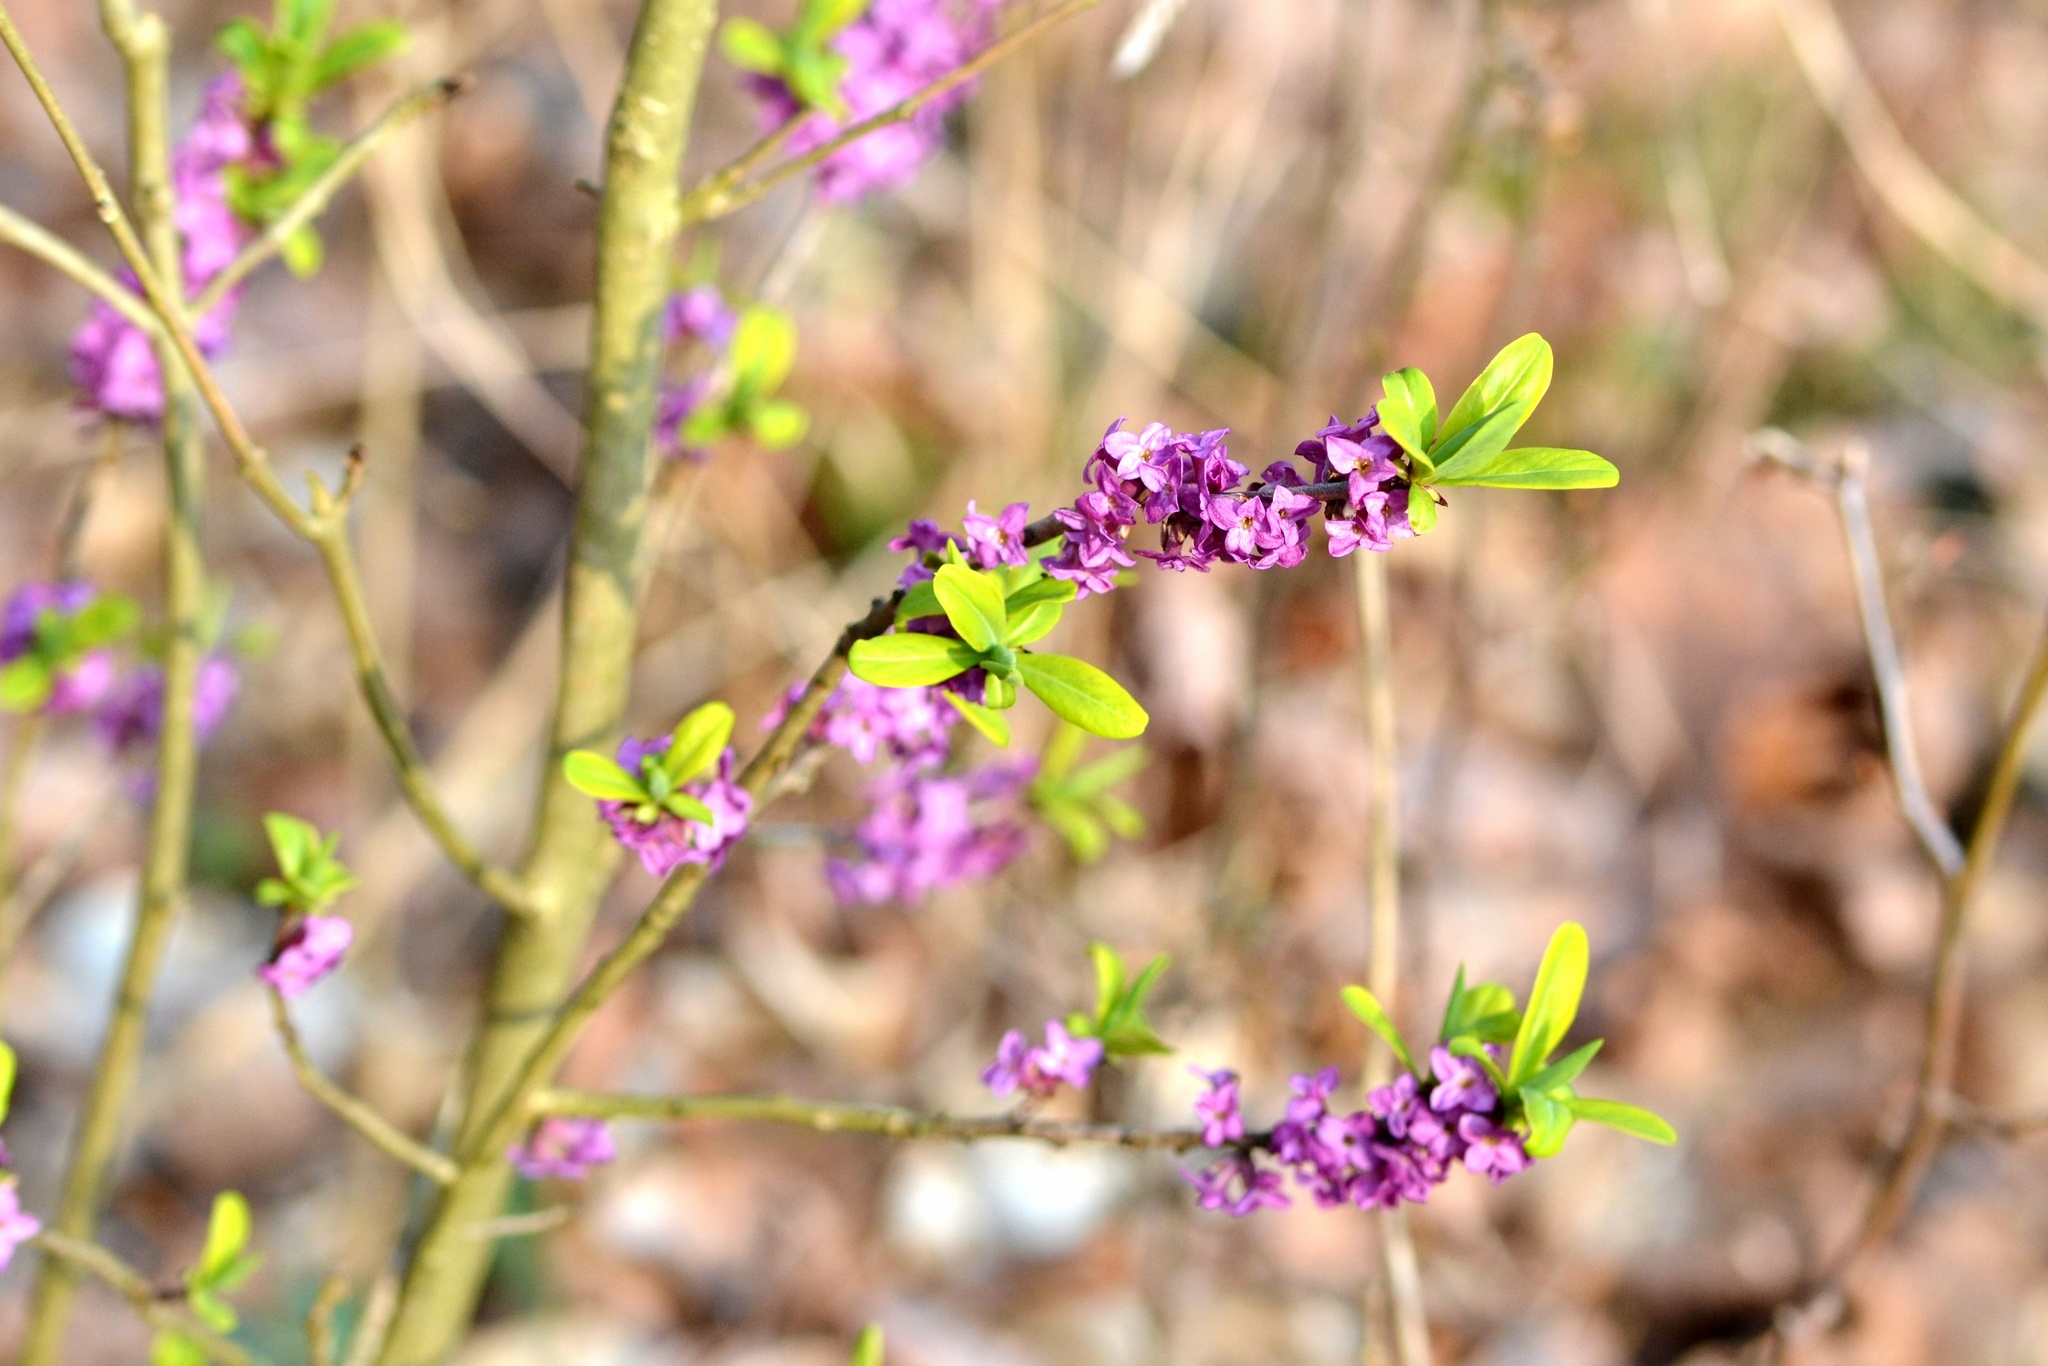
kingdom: Plantae
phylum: Tracheophyta
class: Magnoliopsida
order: Malvales
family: Thymelaeaceae
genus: Daphne
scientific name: Daphne mezereum
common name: Mezereon
